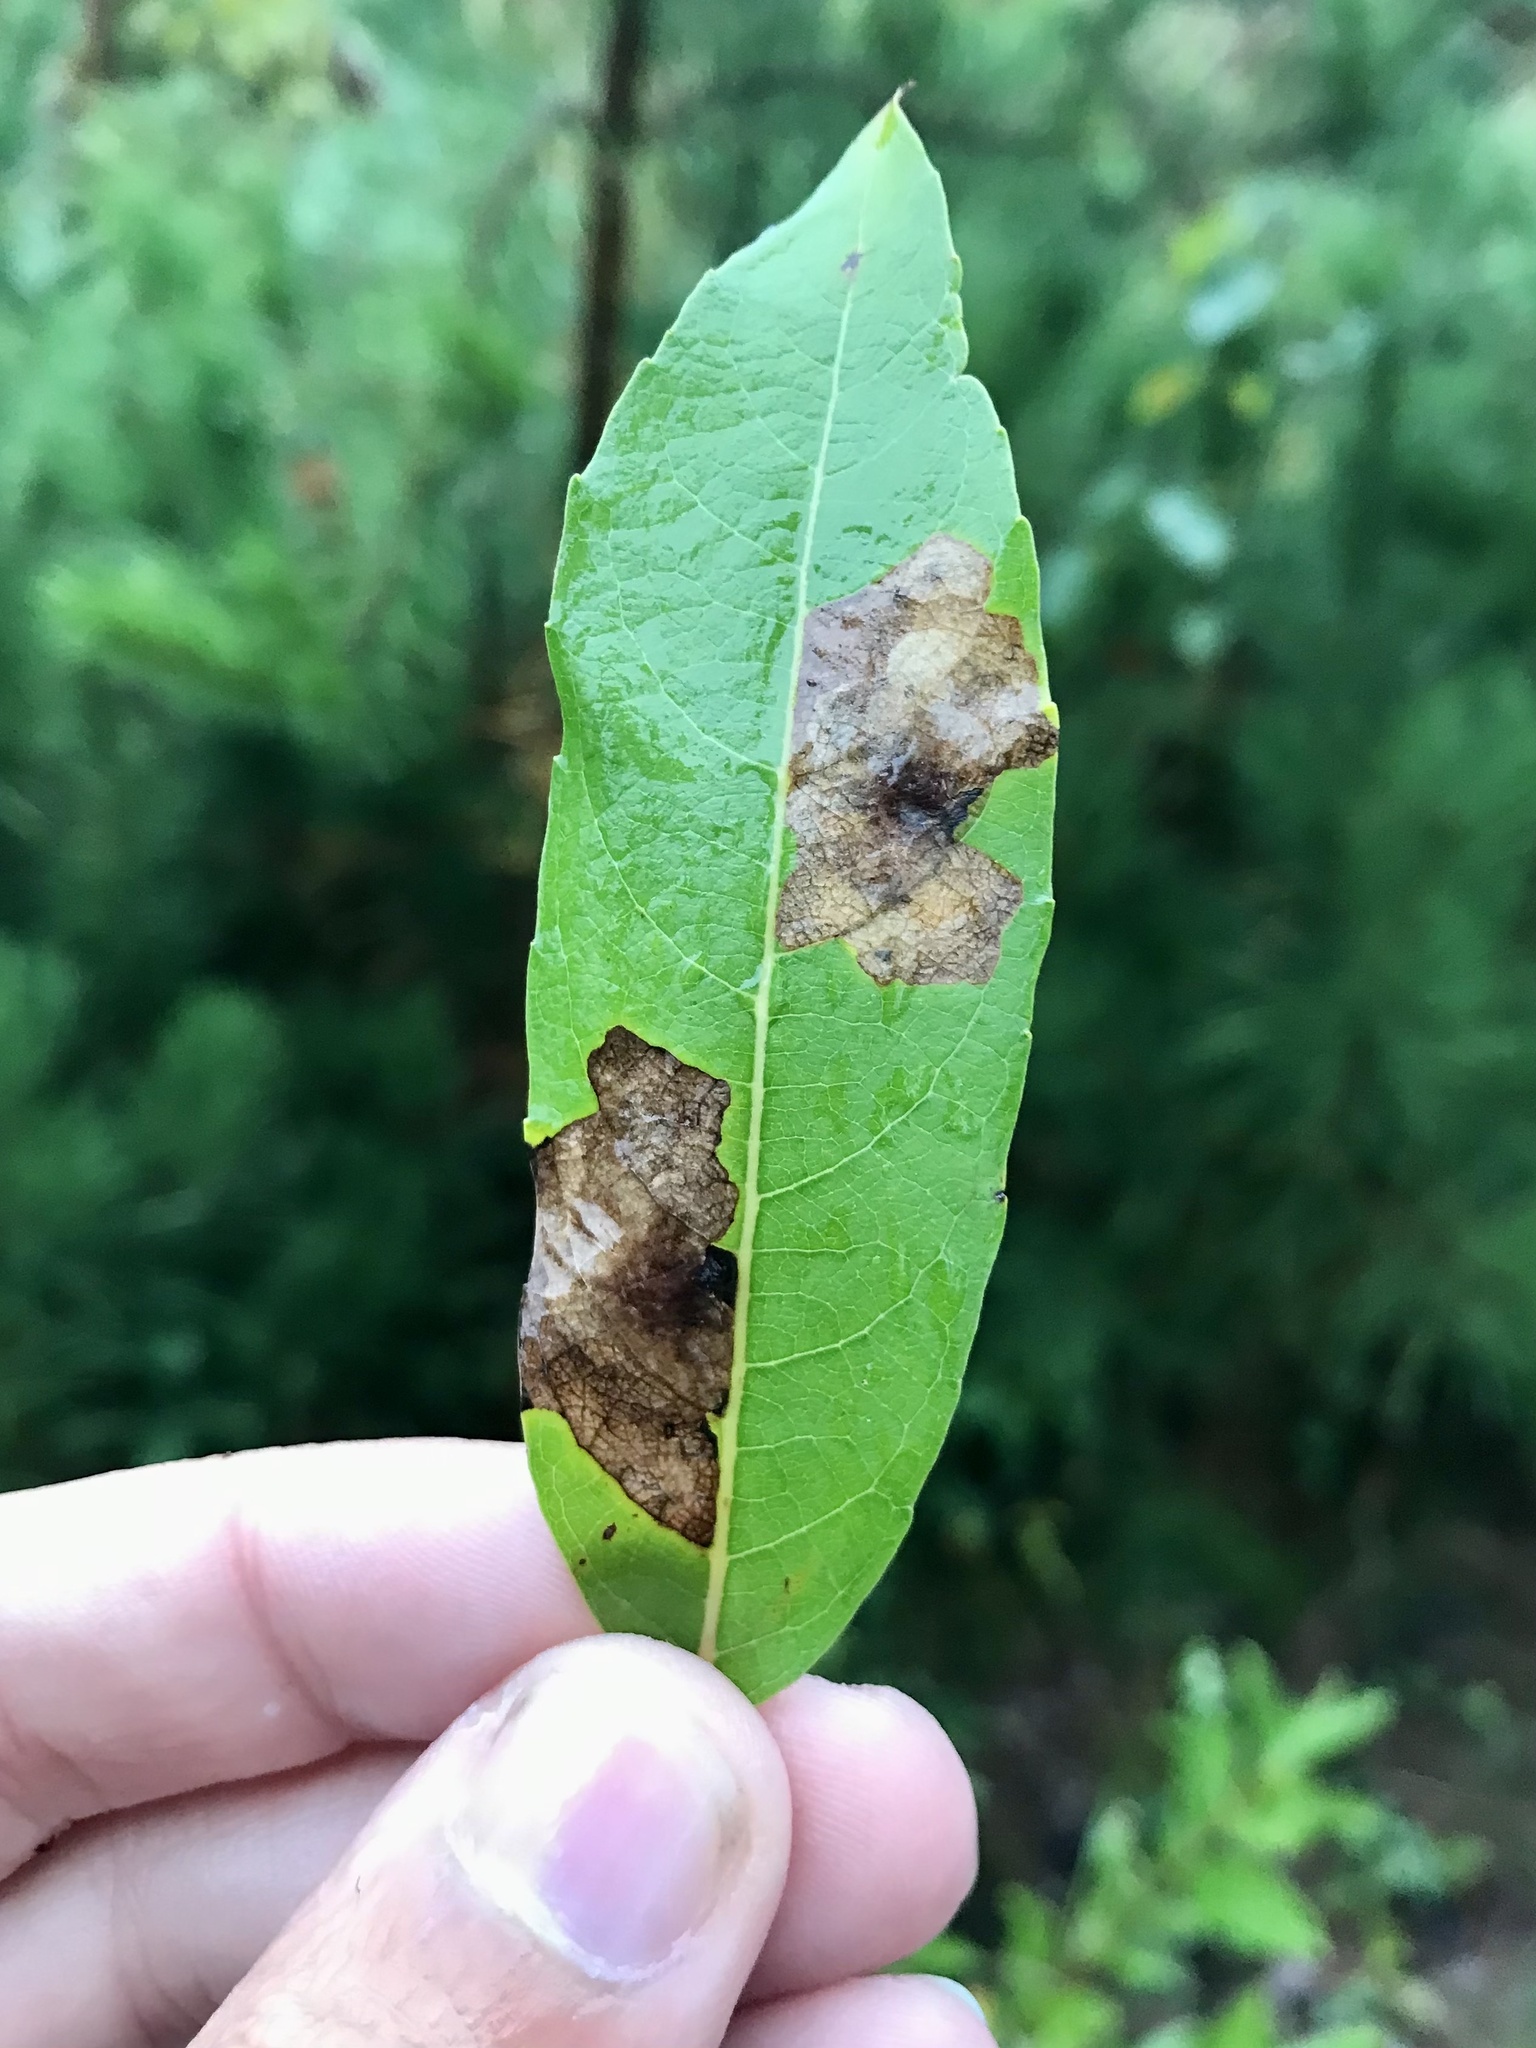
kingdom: Animalia
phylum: Arthropoda
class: Insecta
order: Lepidoptera
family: Gracillariidae
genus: Micrurapteryx
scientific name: Micrurapteryx salicifoliella
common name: Willow leaf blotch miner moth
